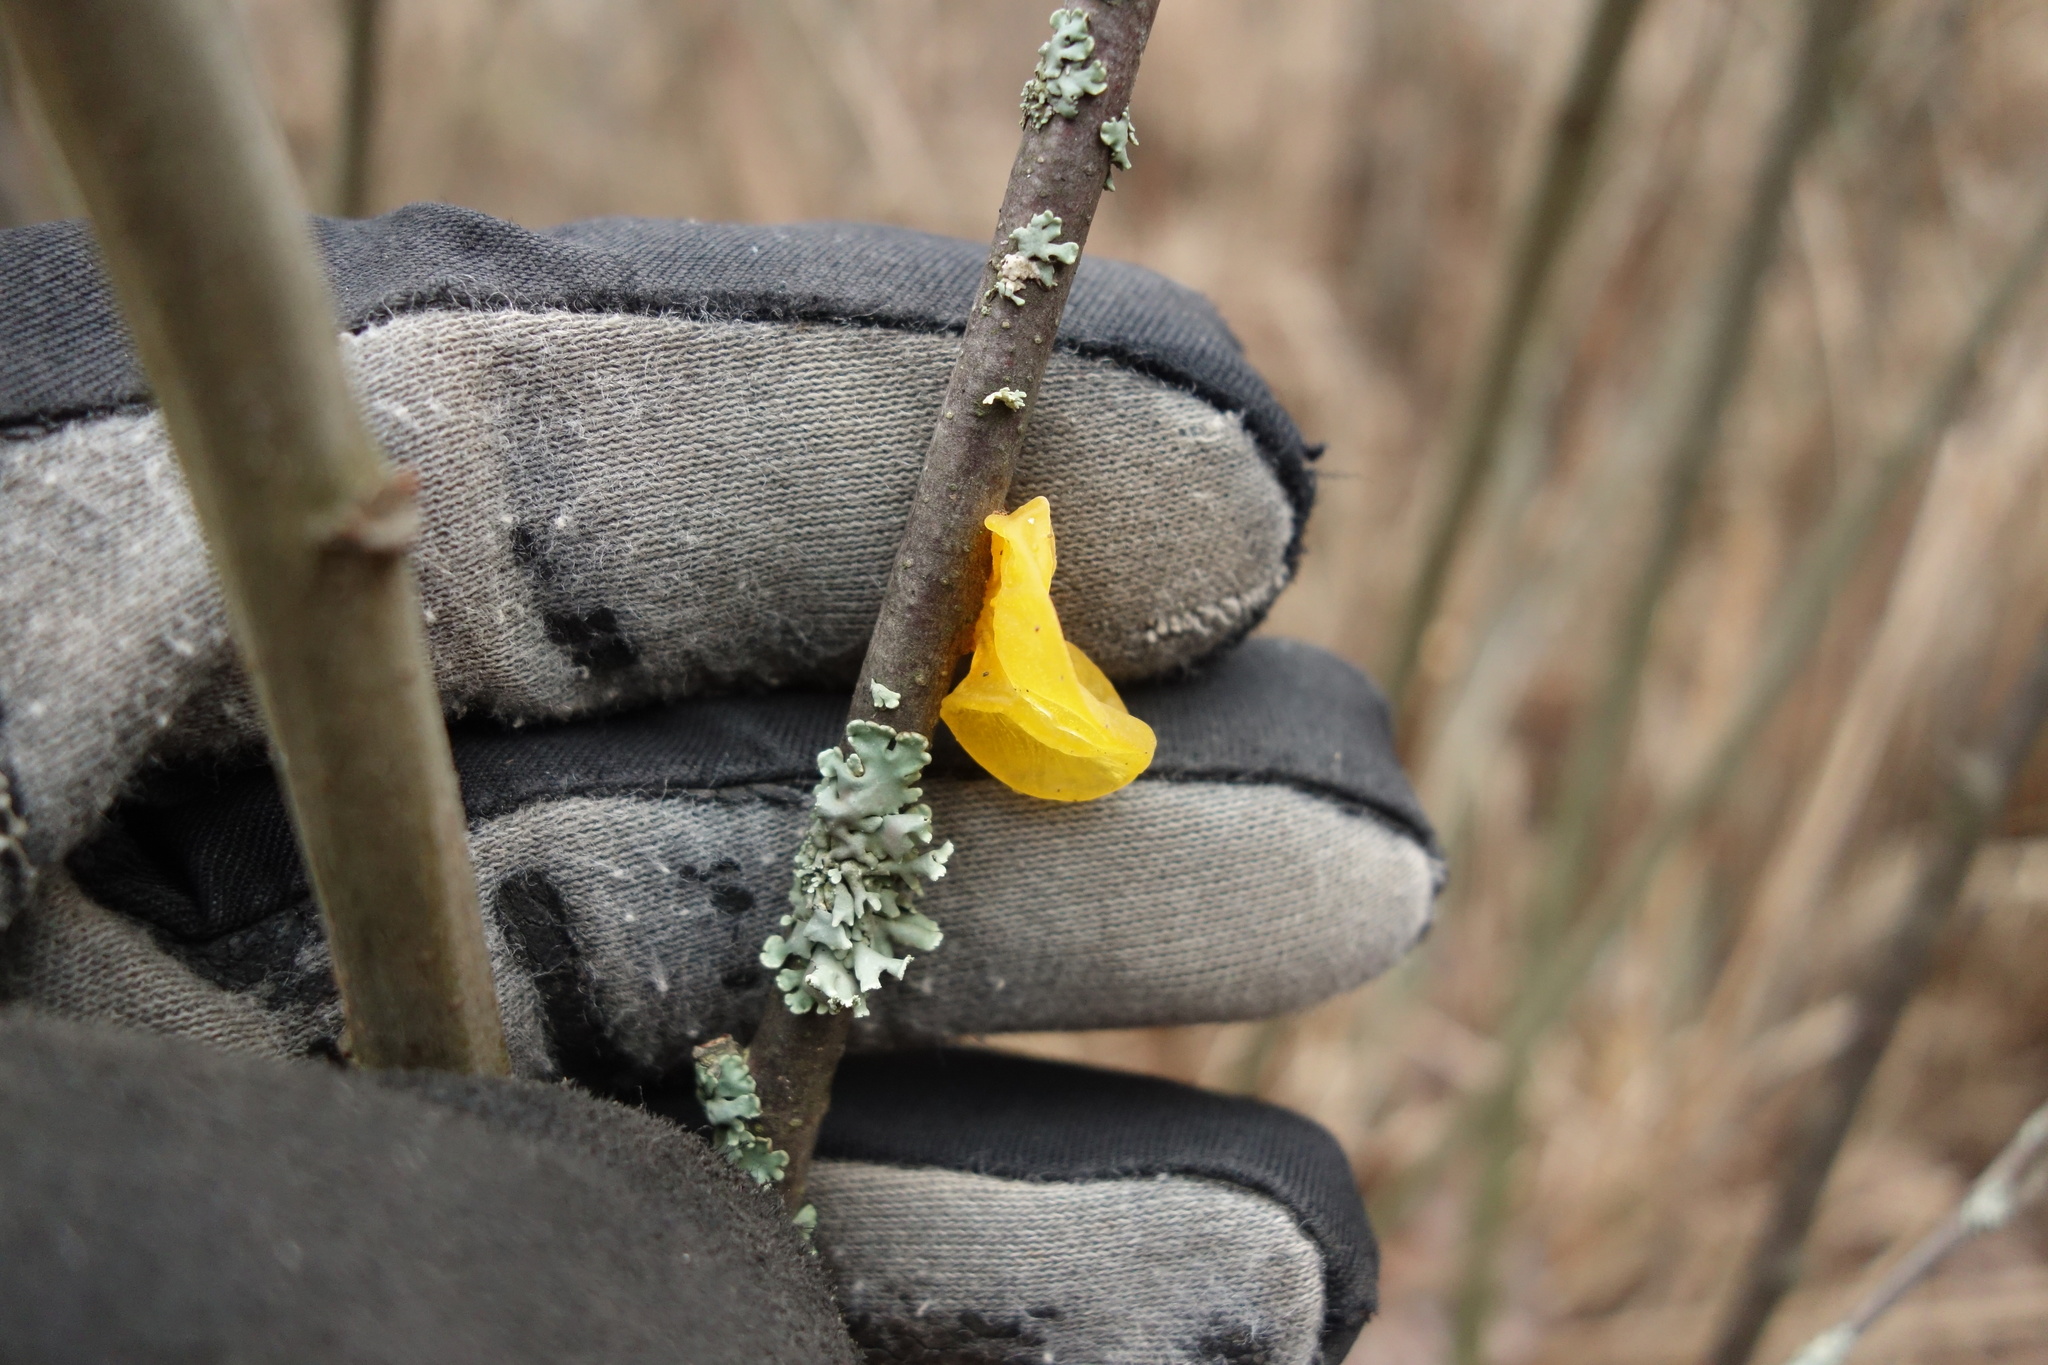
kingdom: Fungi
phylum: Basidiomycota
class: Tremellomycetes
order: Tremellales
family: Tremellaceae
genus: Tremella
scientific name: Tremella mesenterica
